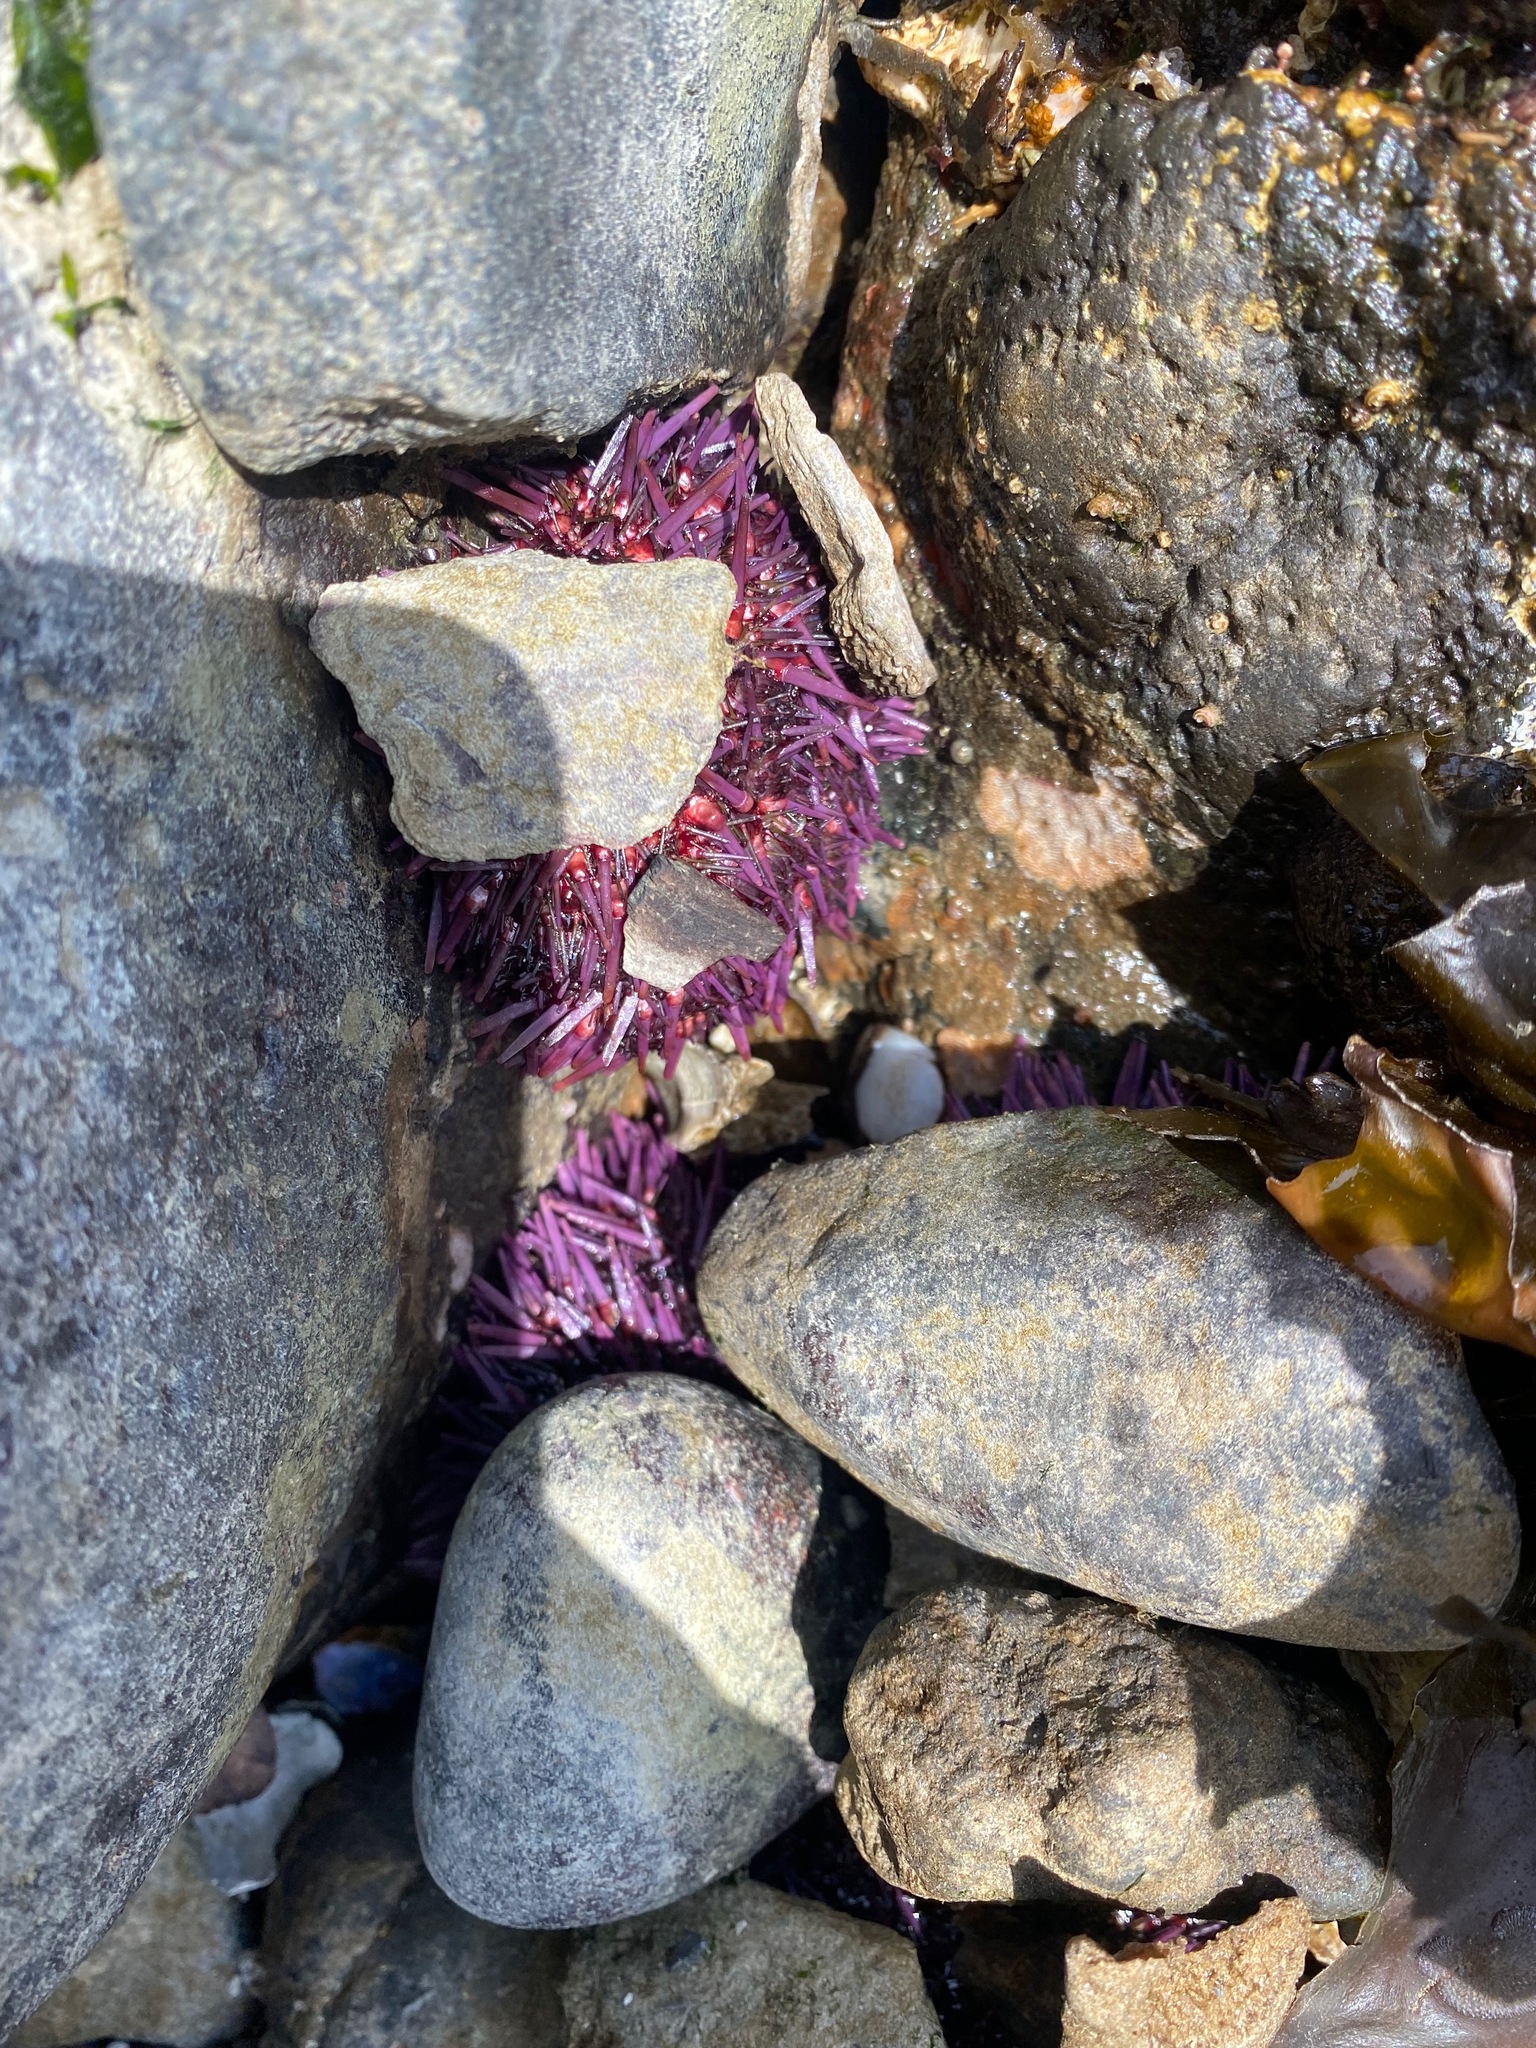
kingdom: Animalia
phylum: Echinodermata
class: Echinoidea
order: Camarodonta
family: Strongylocentrotidae
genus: Strongylocentrotus
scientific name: Strongylocentrotus purpuratus
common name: Purple sea urchin
